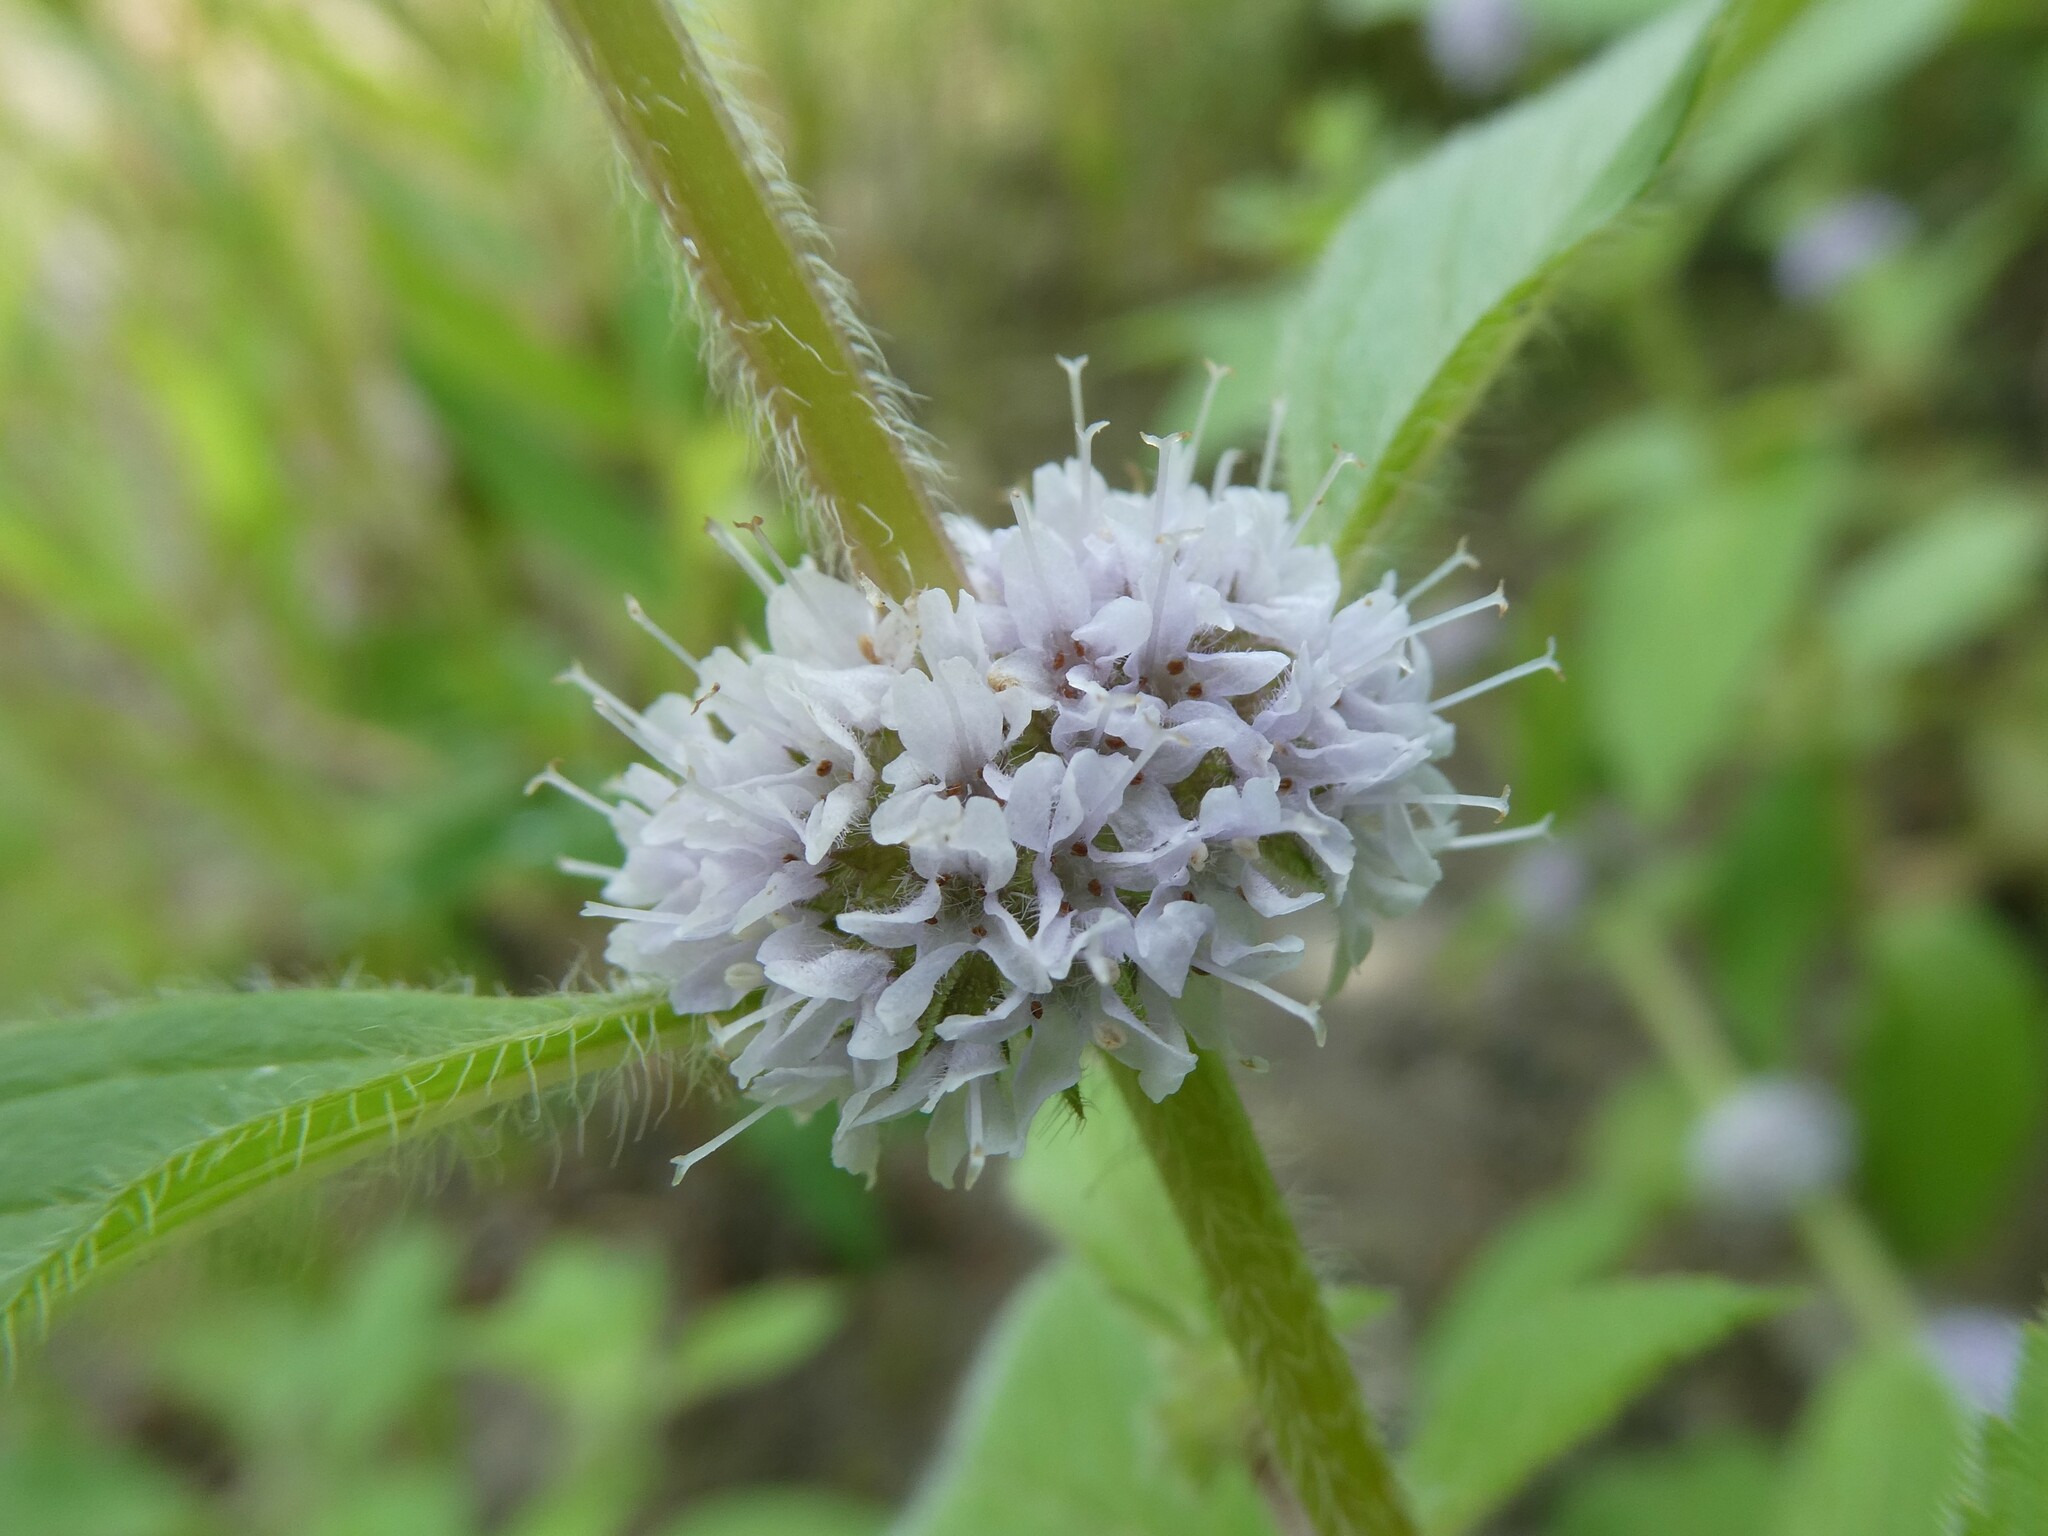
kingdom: Plantae
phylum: Tracheophyta
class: Magnoliopsida
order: Lamiales
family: Lamiaceae
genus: Mentha
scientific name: Mentha canadensis
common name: American corn mint
